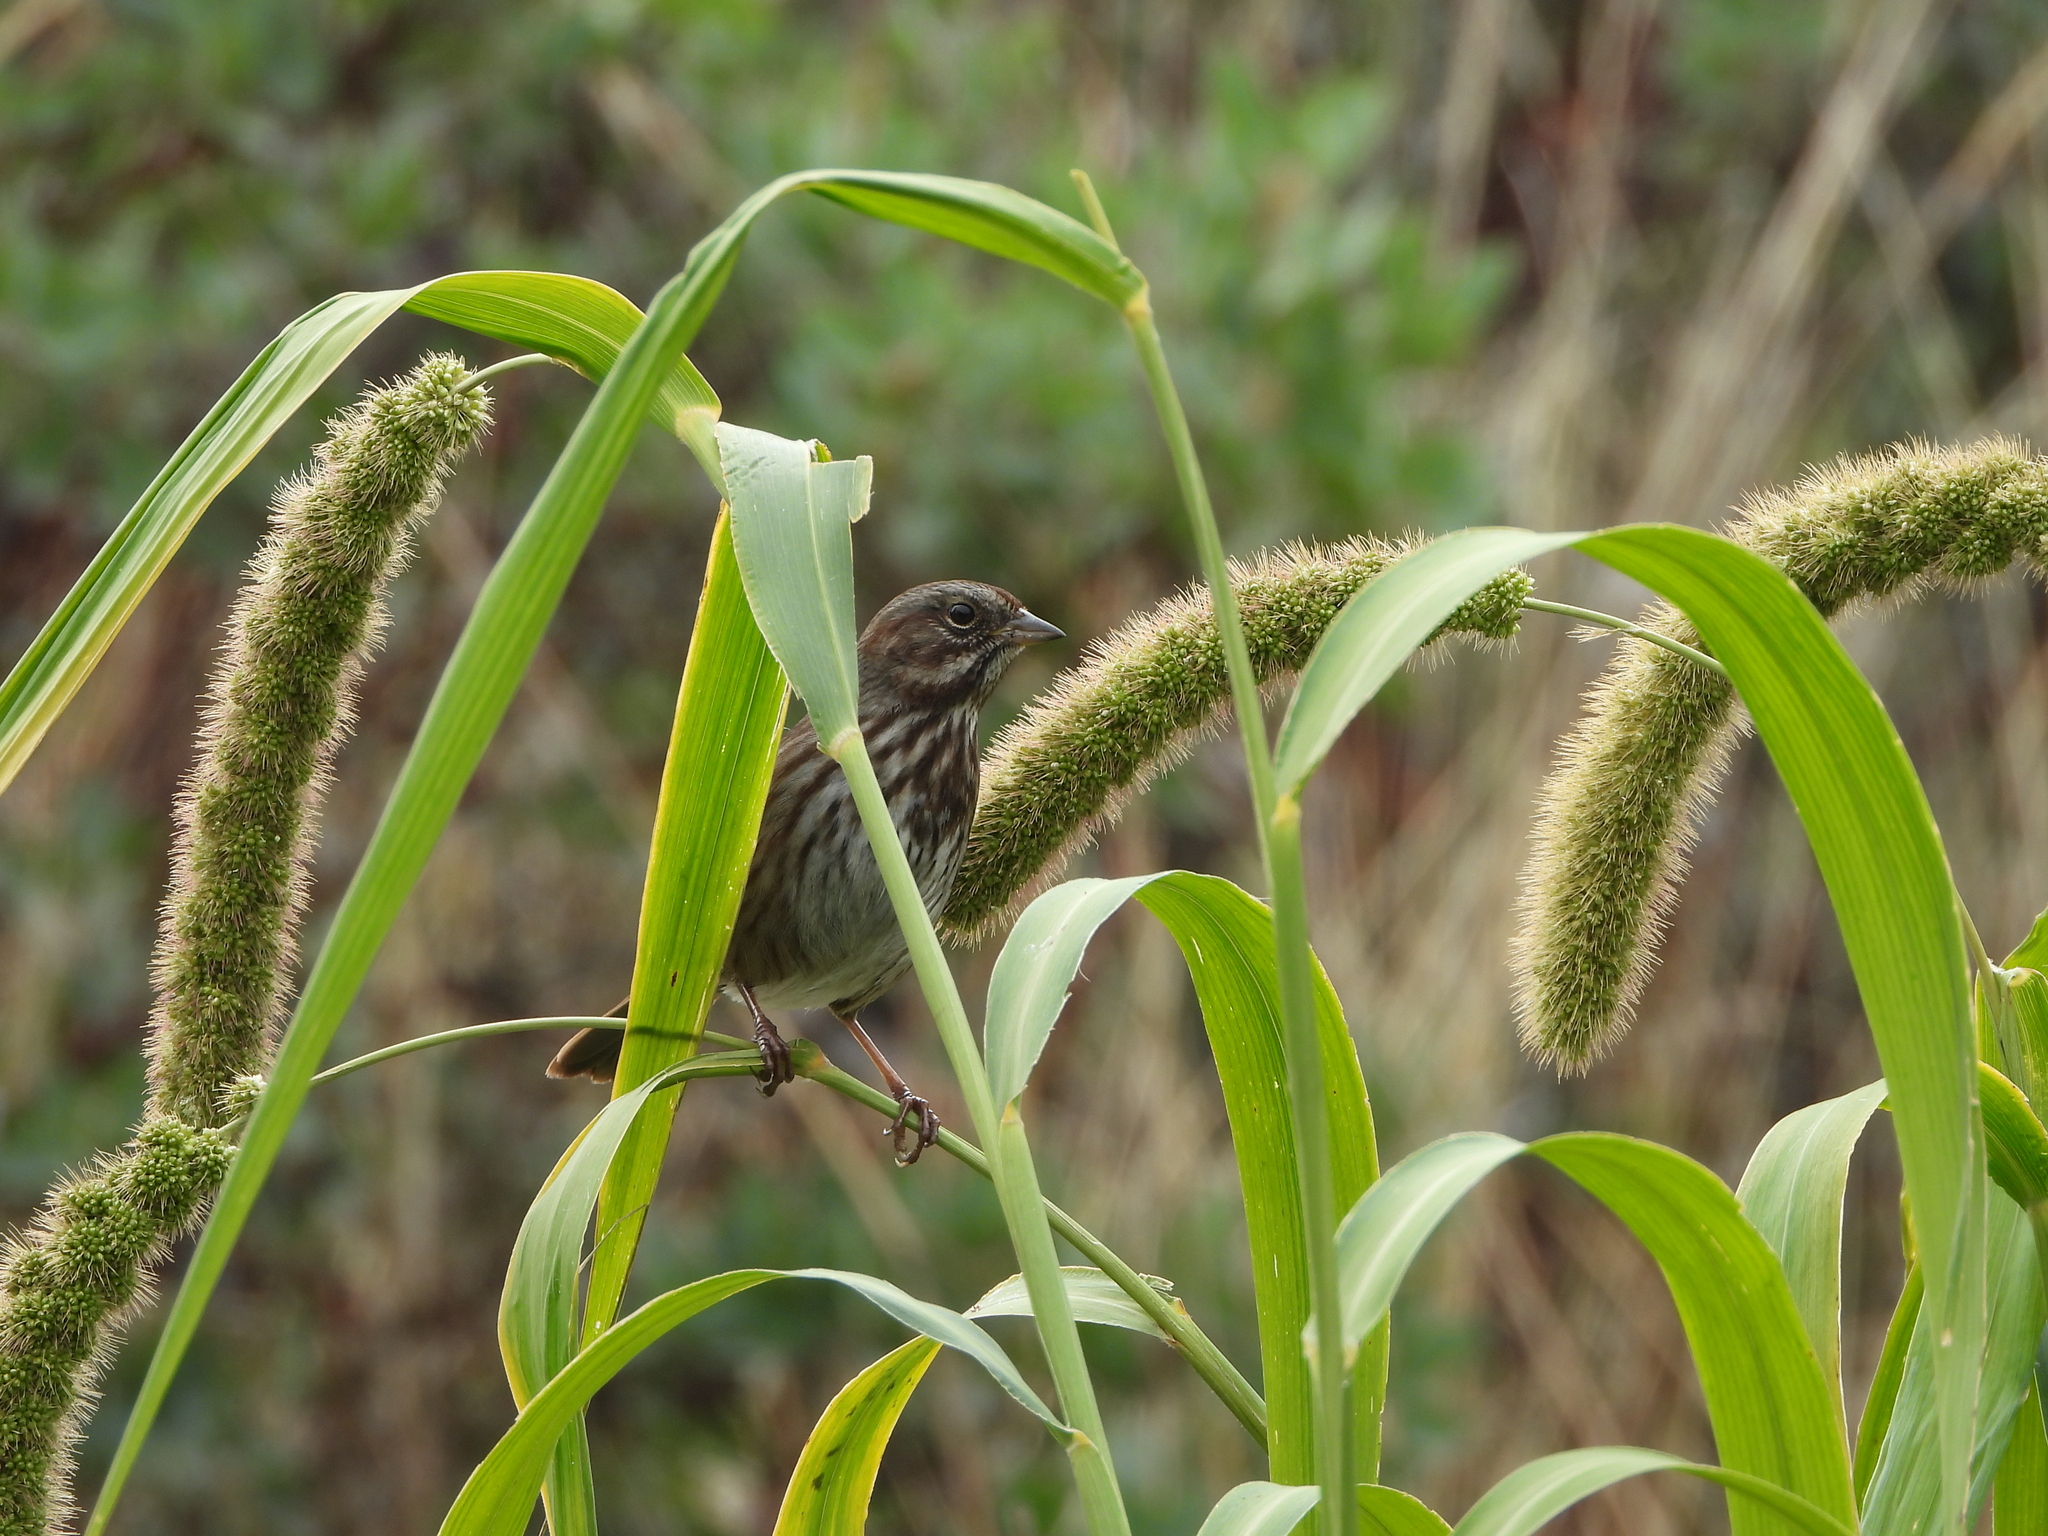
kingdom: Animalia
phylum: Chordata
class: Aves
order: Passeriformes
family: Passerellidae
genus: Melospiza
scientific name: Melospiza melodia
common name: Song sparrow
